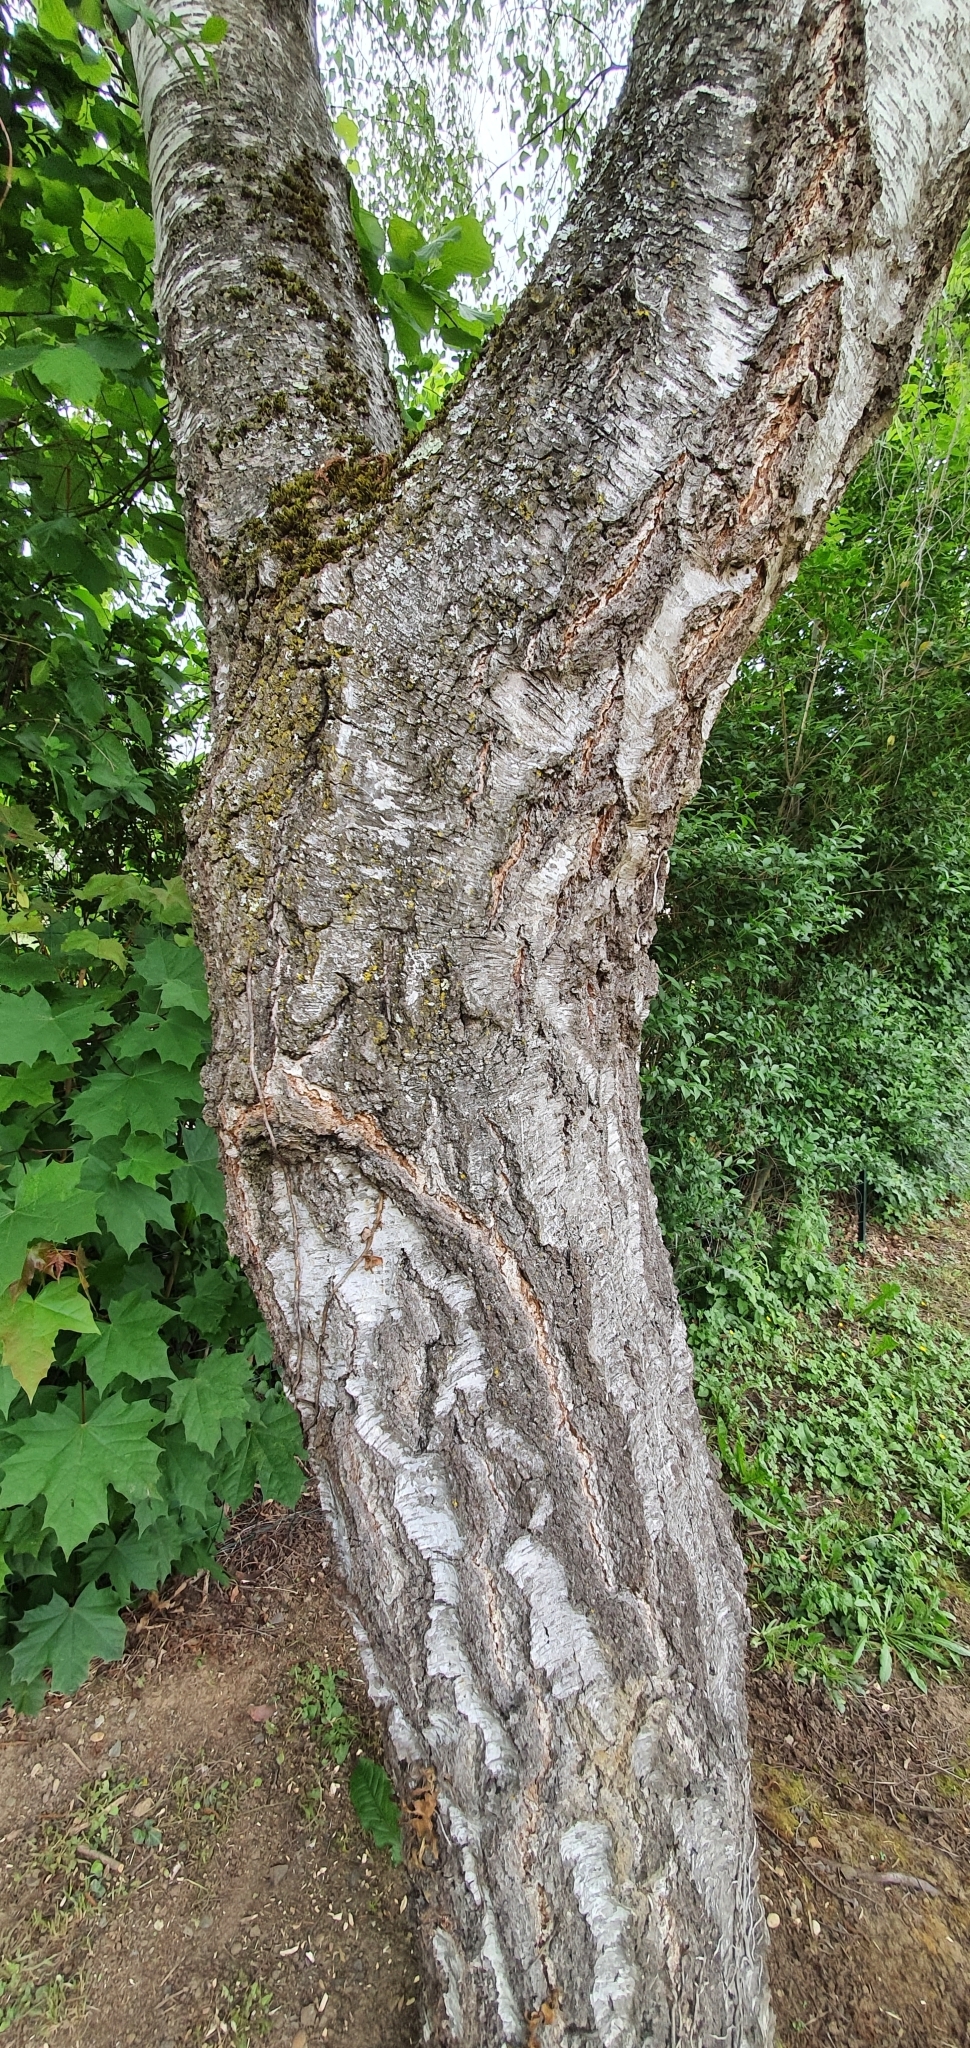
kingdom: Plantae
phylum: Tracheophyta
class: Magnoliopsida
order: Fagales
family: Betulaceae
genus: Betula
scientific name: Betula pendula
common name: Silver birch
